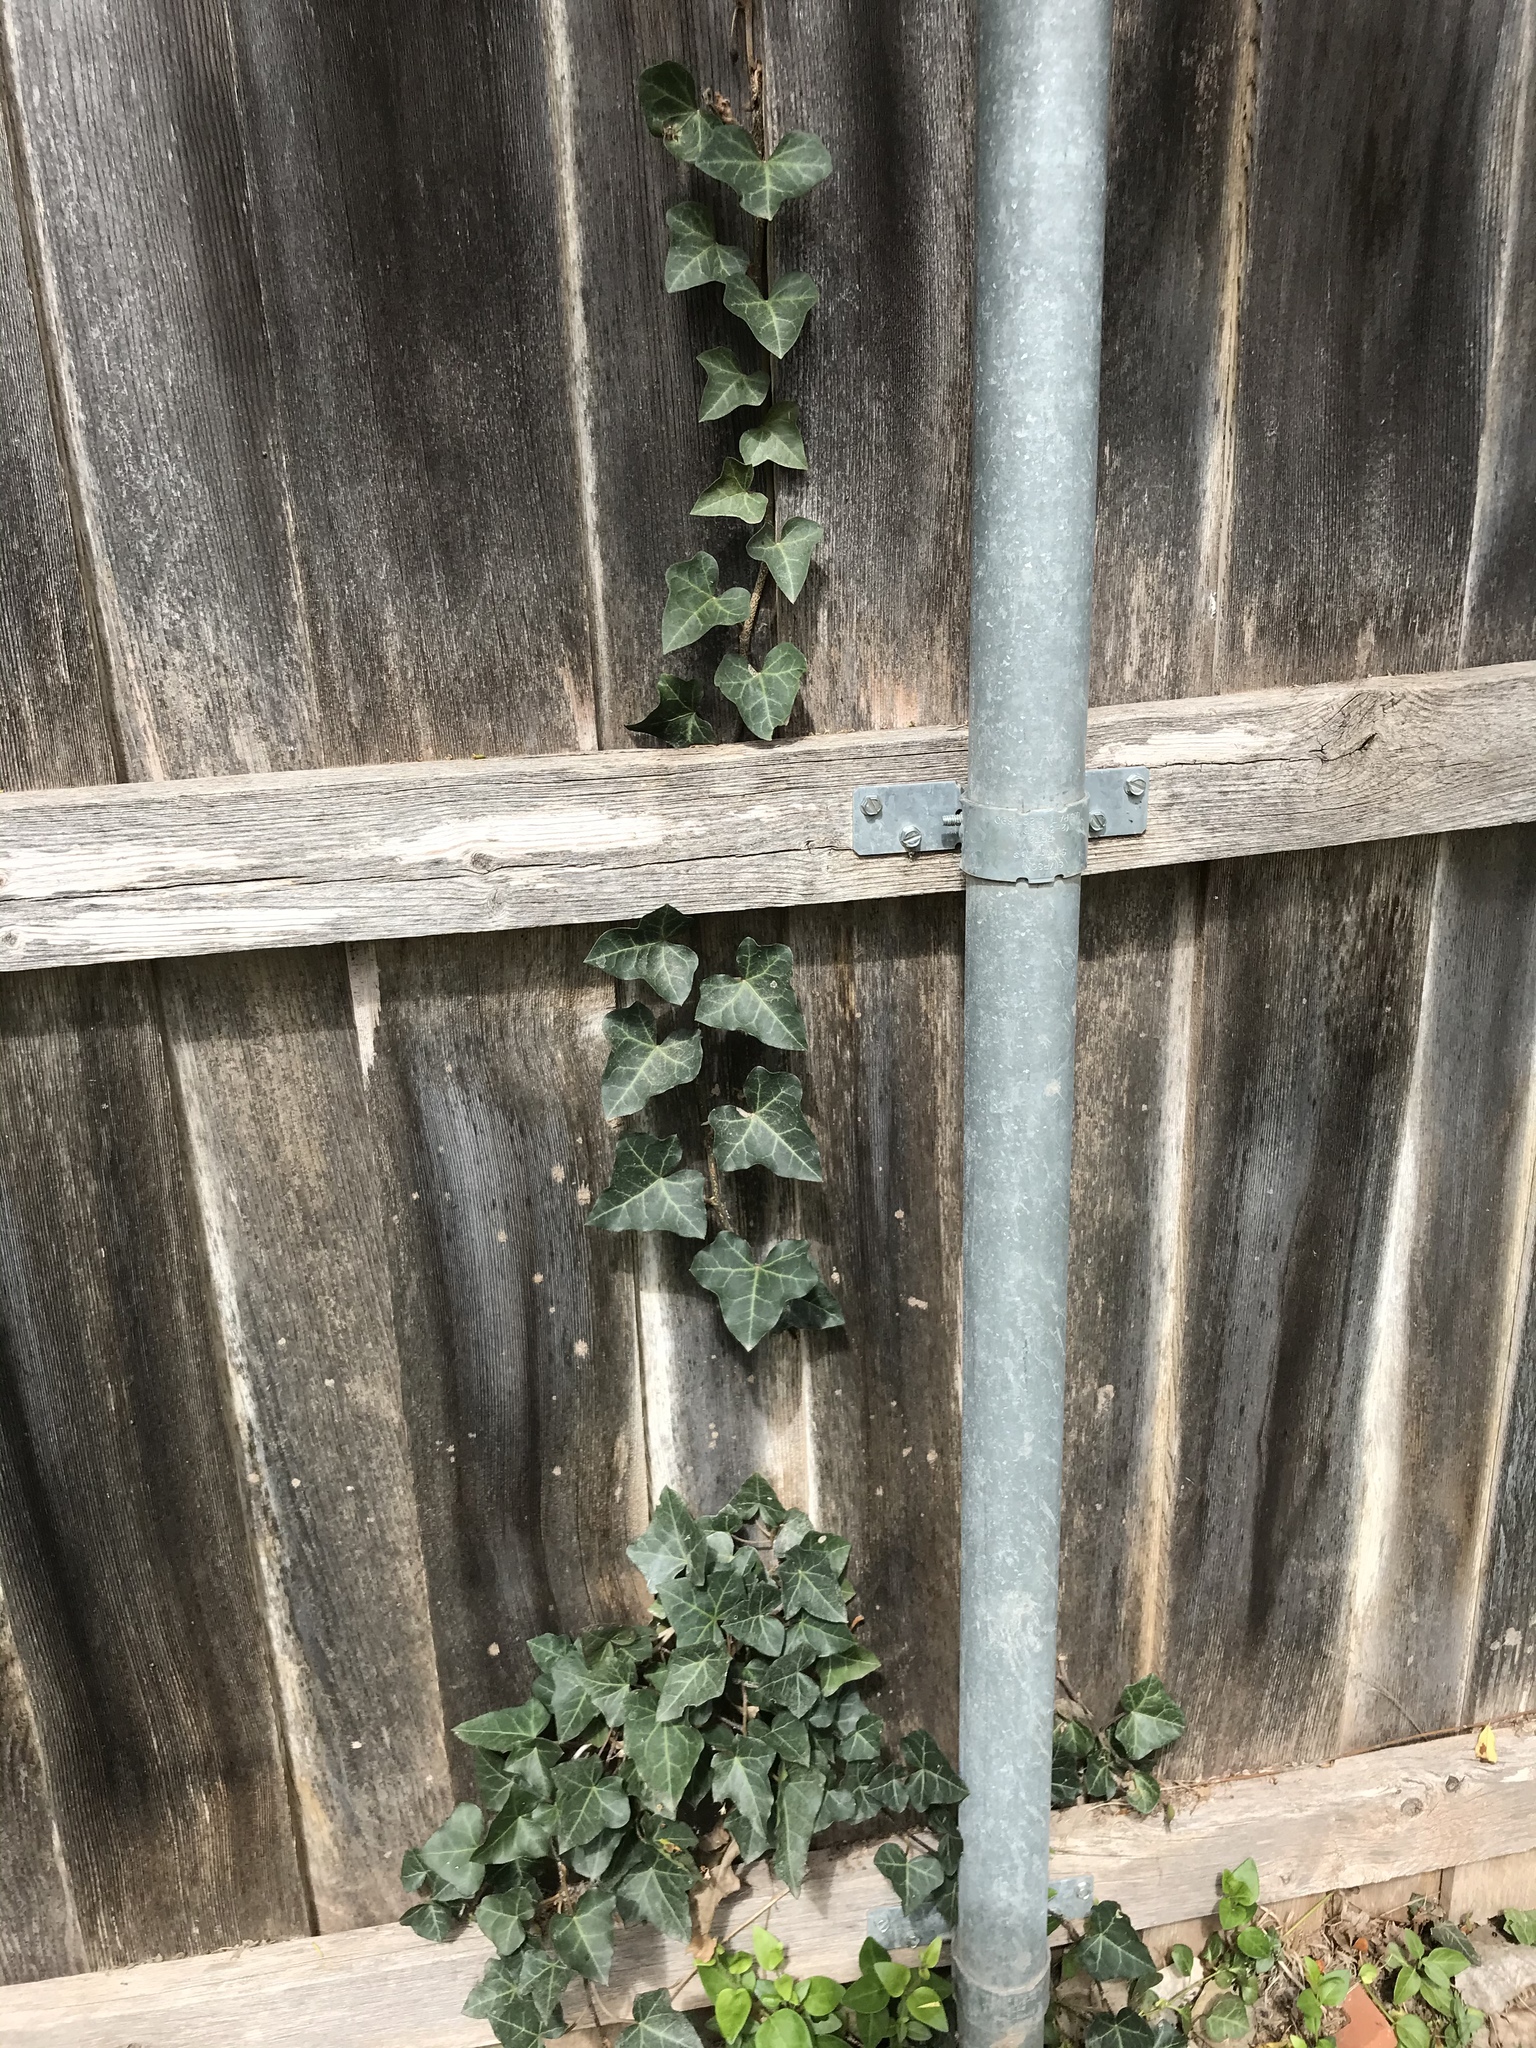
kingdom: Plantae
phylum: Tracheophyta
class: Magnoliopsida
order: Apiales
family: Araliaceae
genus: Hedera
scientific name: Hedera helix
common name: Ivy
